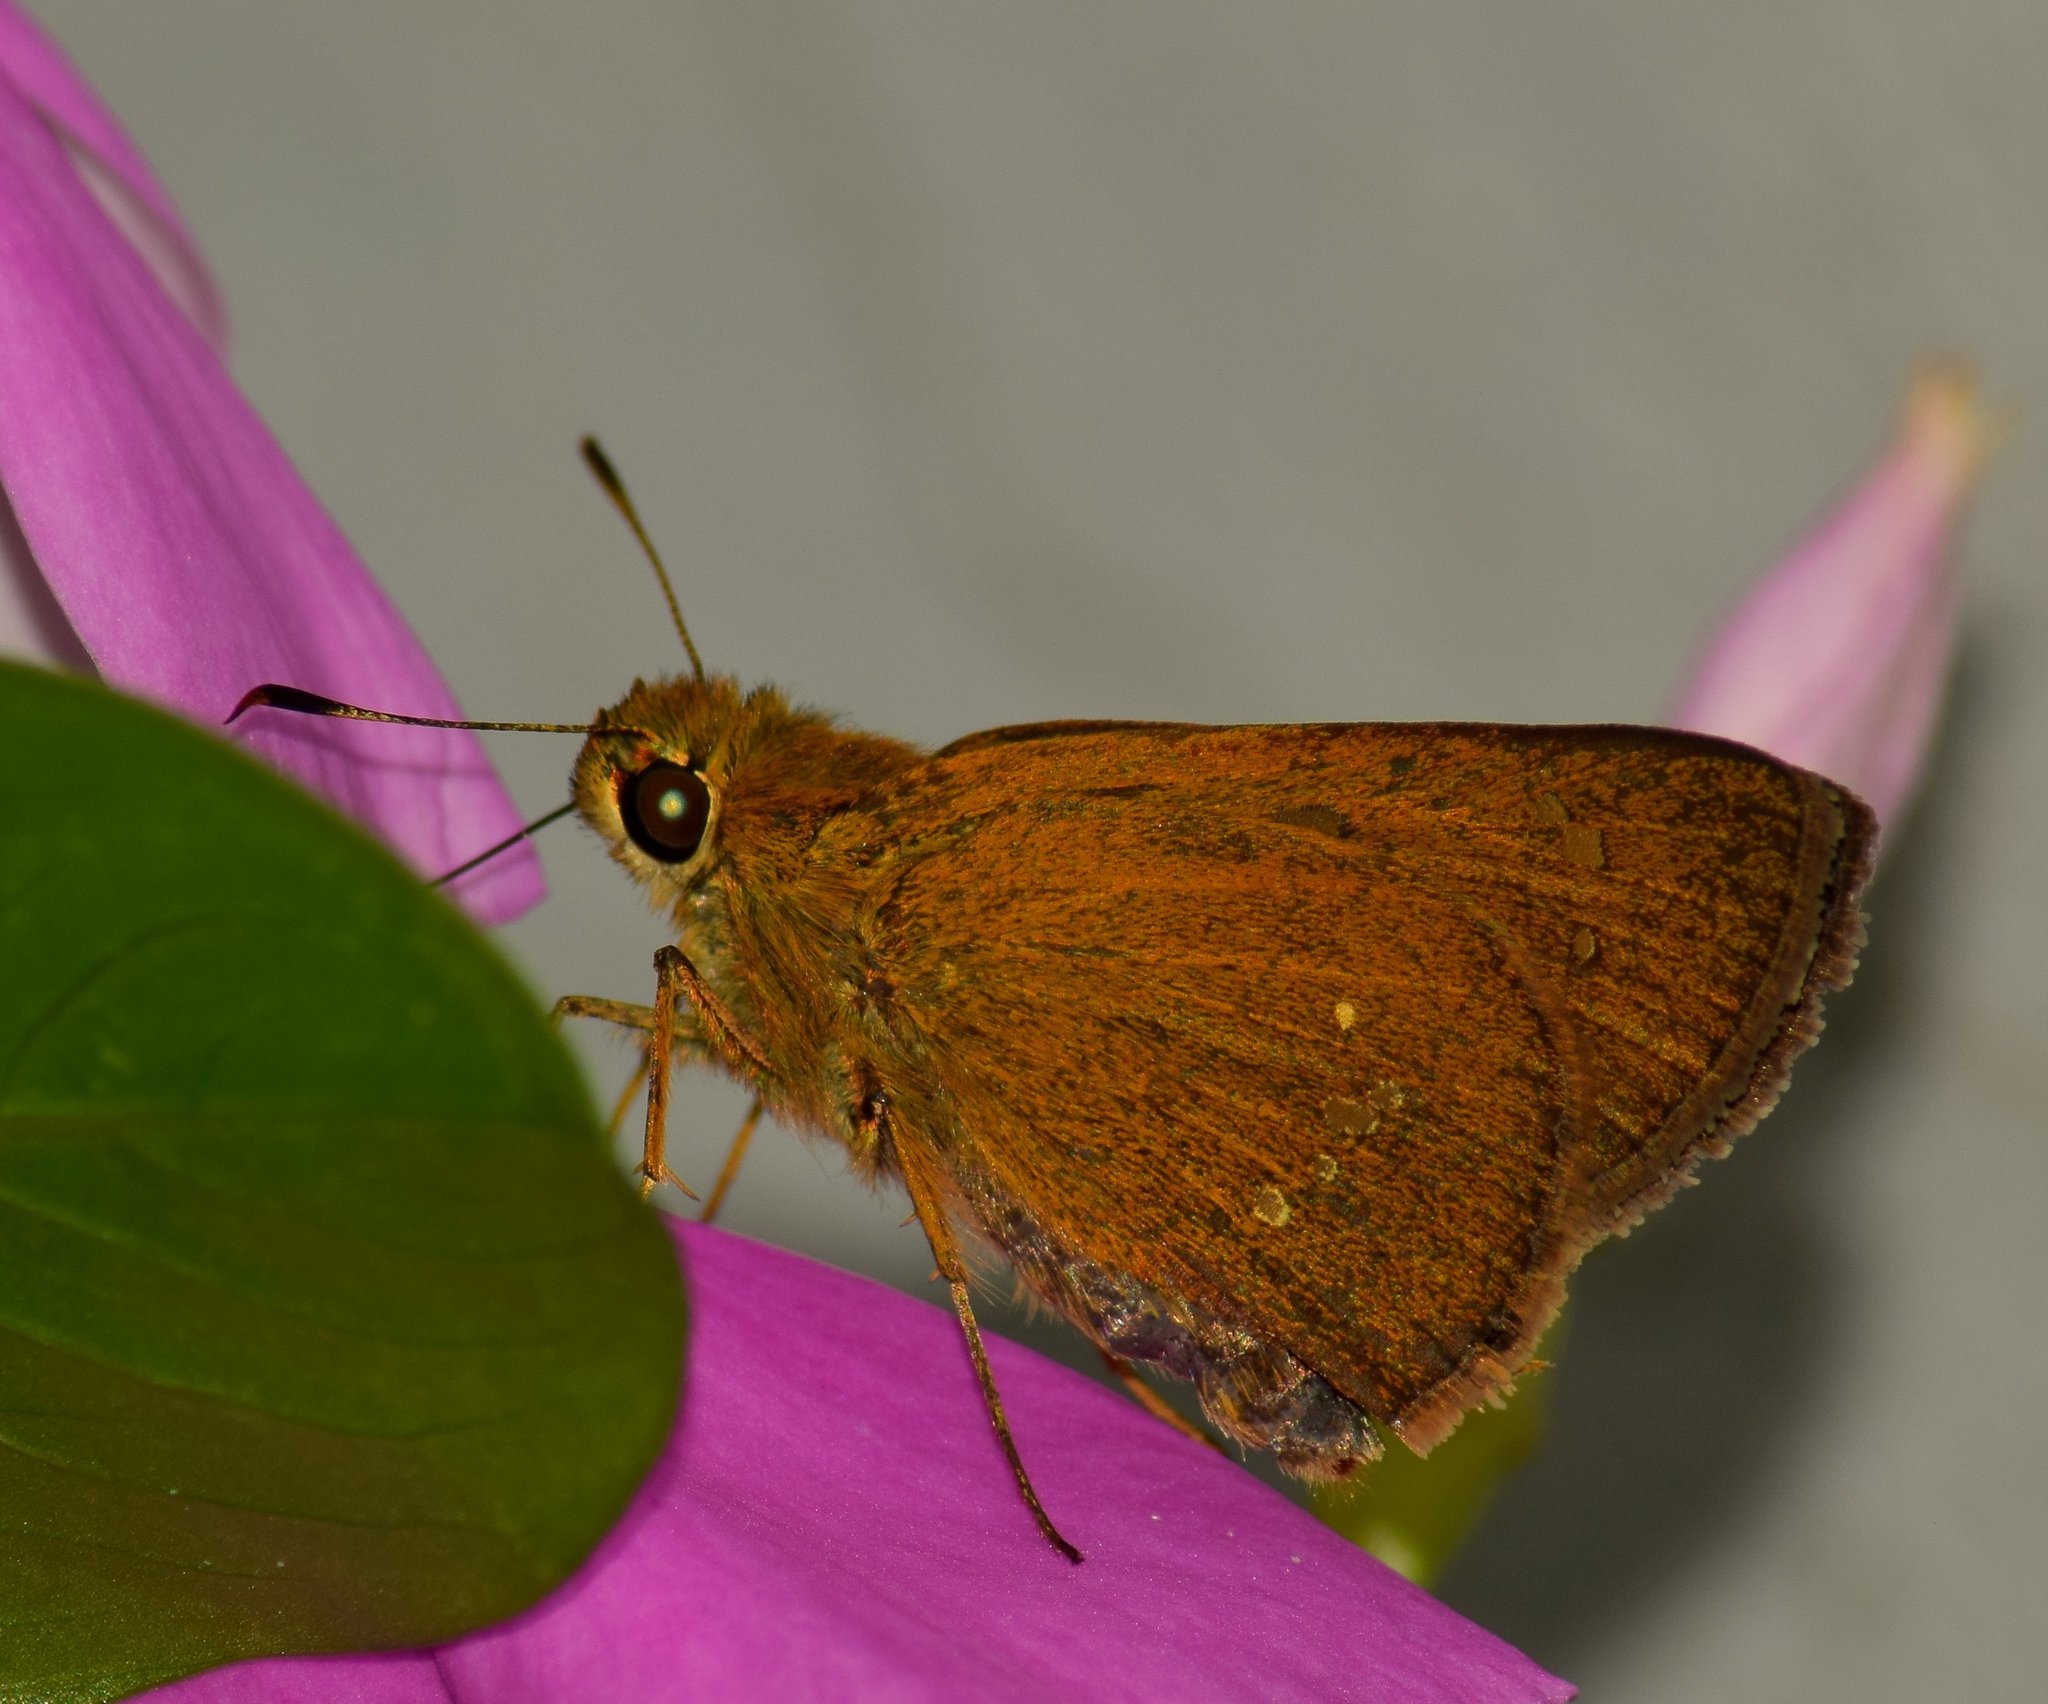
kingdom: Animalia
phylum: Arthropoda
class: Insecta
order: Lepidoptera
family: Hesperiidae
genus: Parnara
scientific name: Parnara naso
